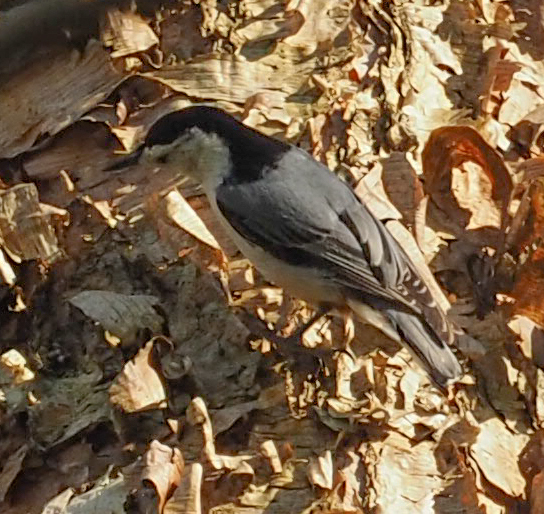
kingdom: Animalia
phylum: Chordata
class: Aves
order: Passeriformes
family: Sittidae
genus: Sitta
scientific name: Sitta carolinensis
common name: White-breasted nuthatch
